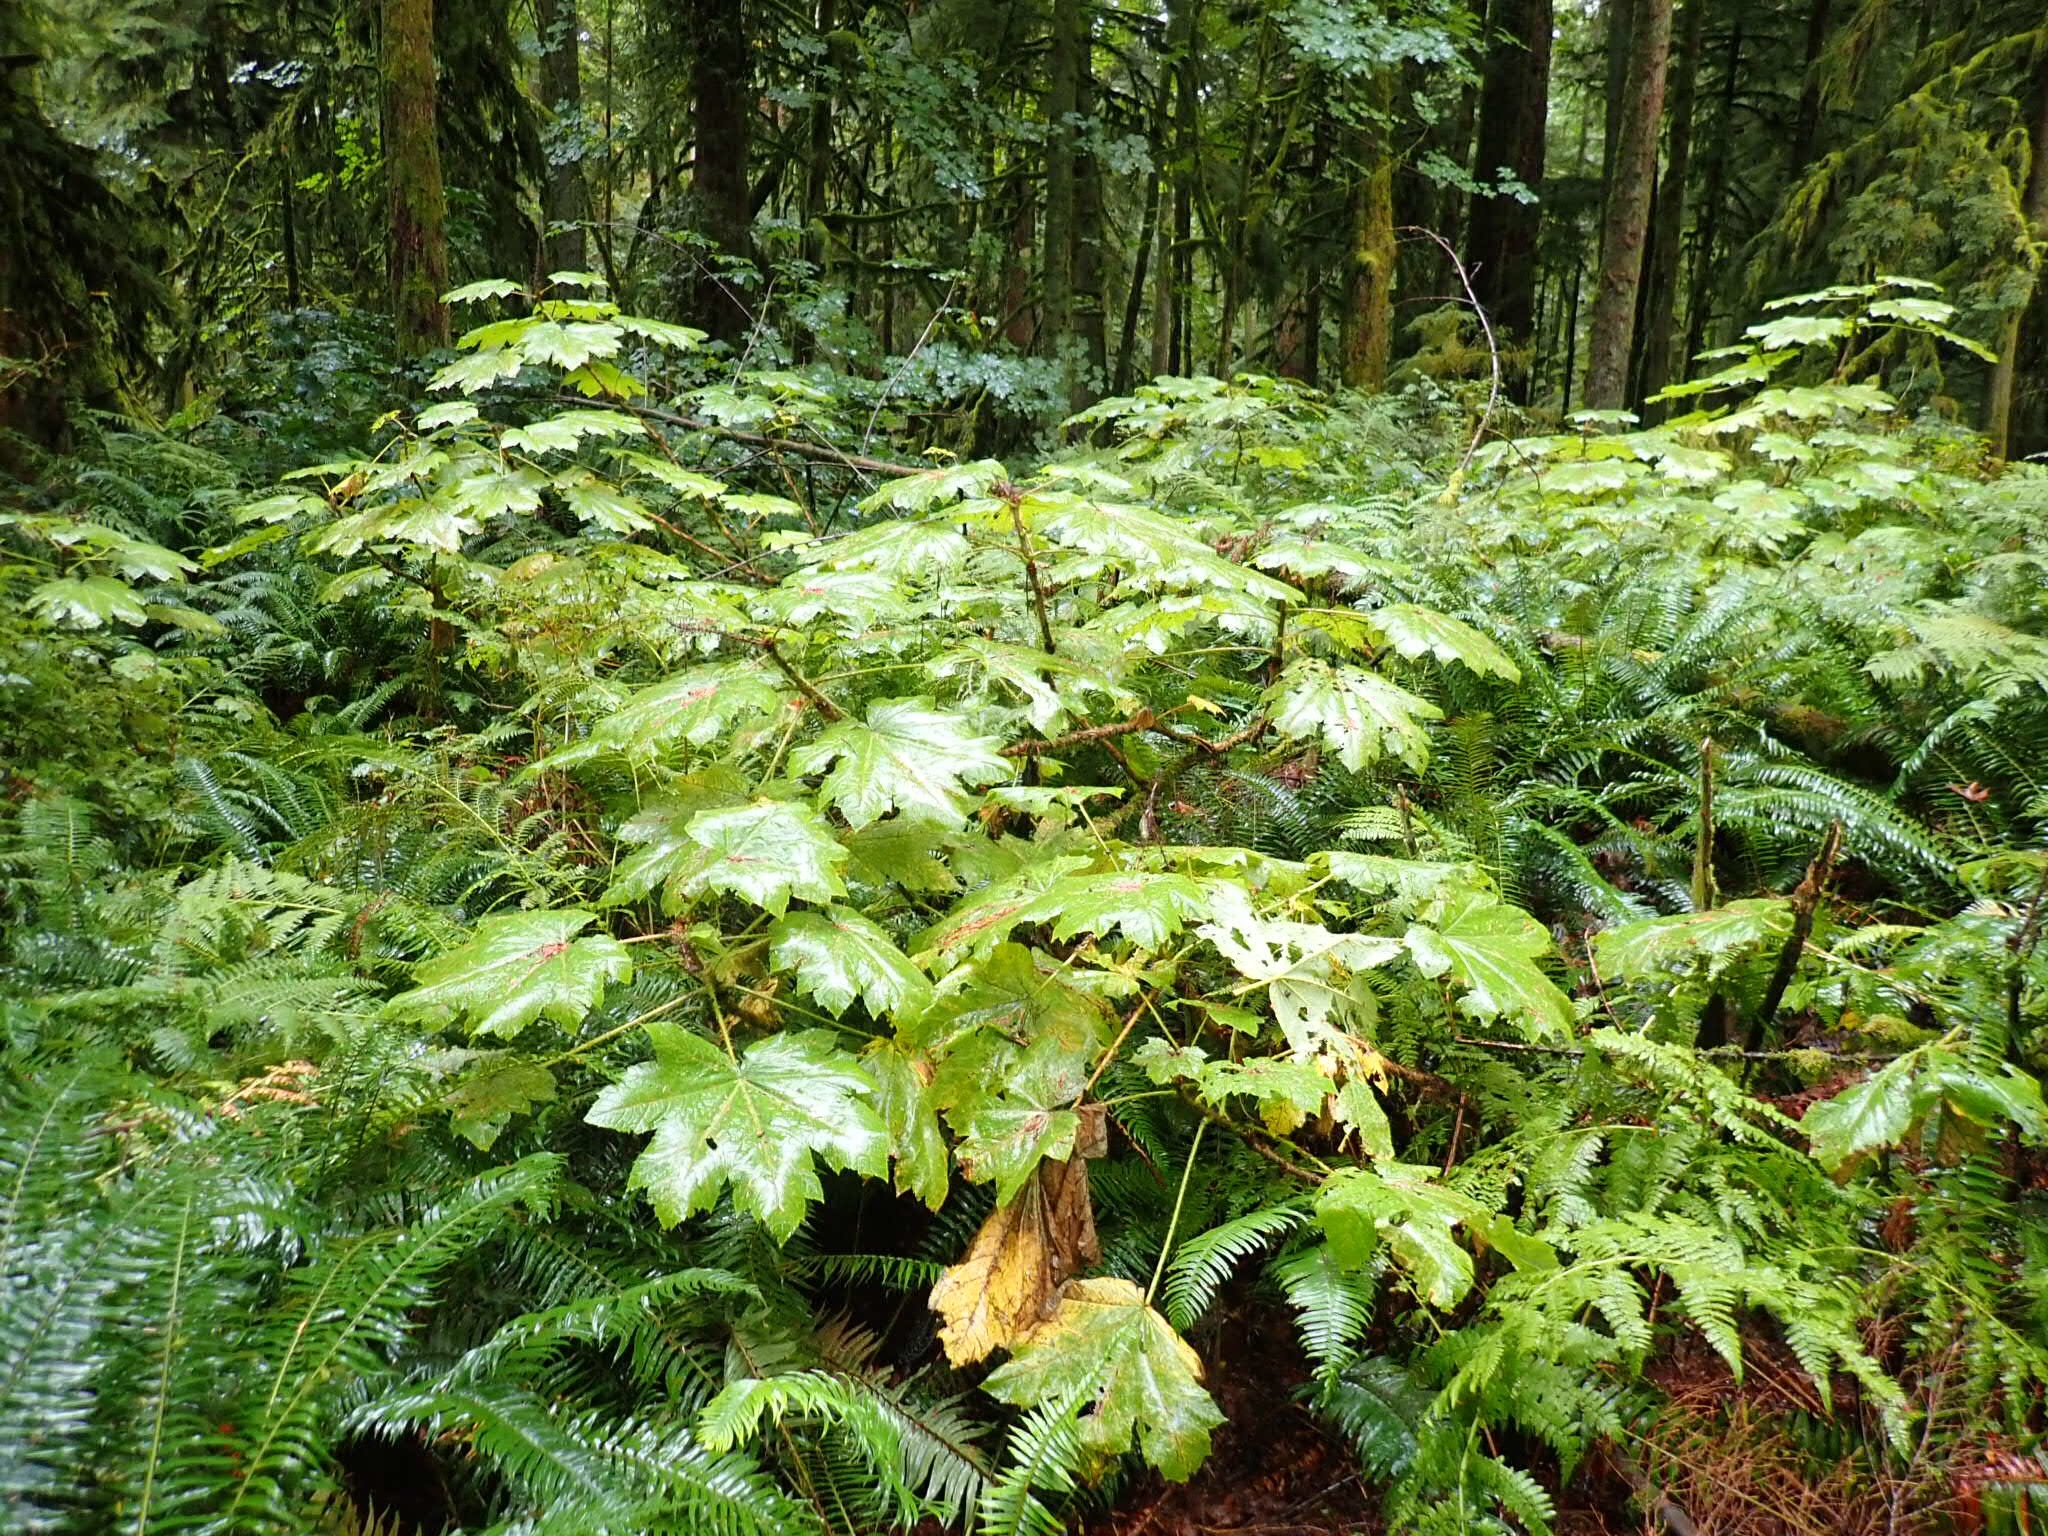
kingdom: Plantae
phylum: Tracheophyta
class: Magnoliopsida
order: Apiales
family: Araliaceae
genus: Oplopanax
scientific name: Oplopanax horridus
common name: Devil's walking-stick
